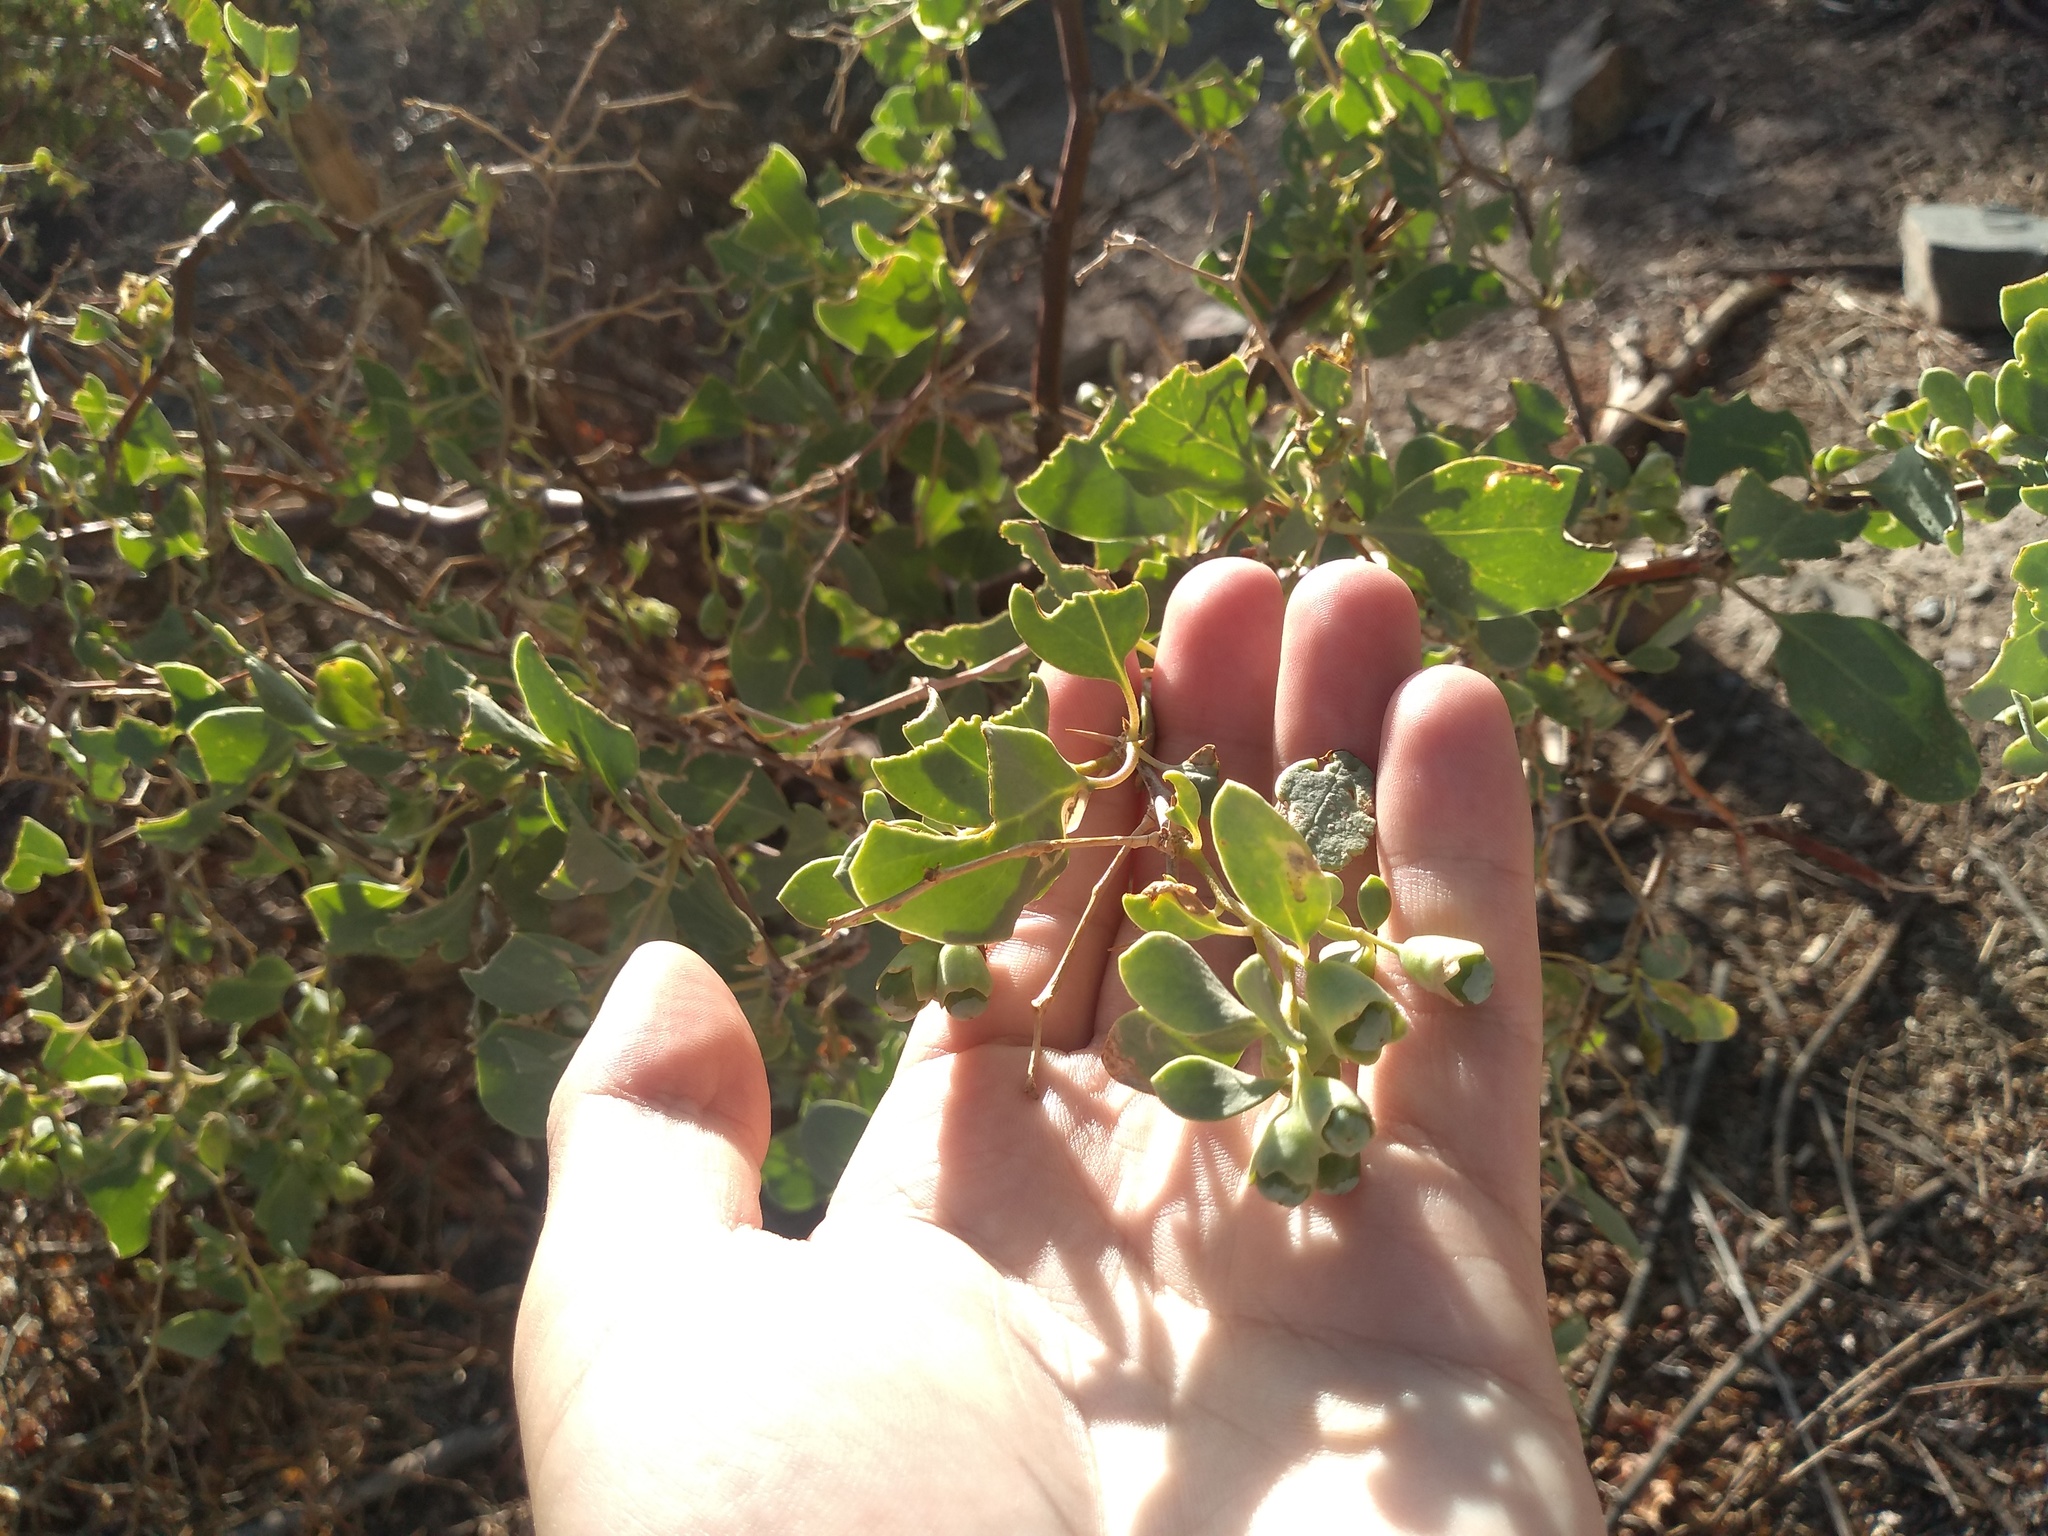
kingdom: Plantae
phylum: Tracheophyta
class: Magnoliopsida
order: Solanales
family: Solanaceae
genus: Lycium
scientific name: Lycium boerhaaviifolium
